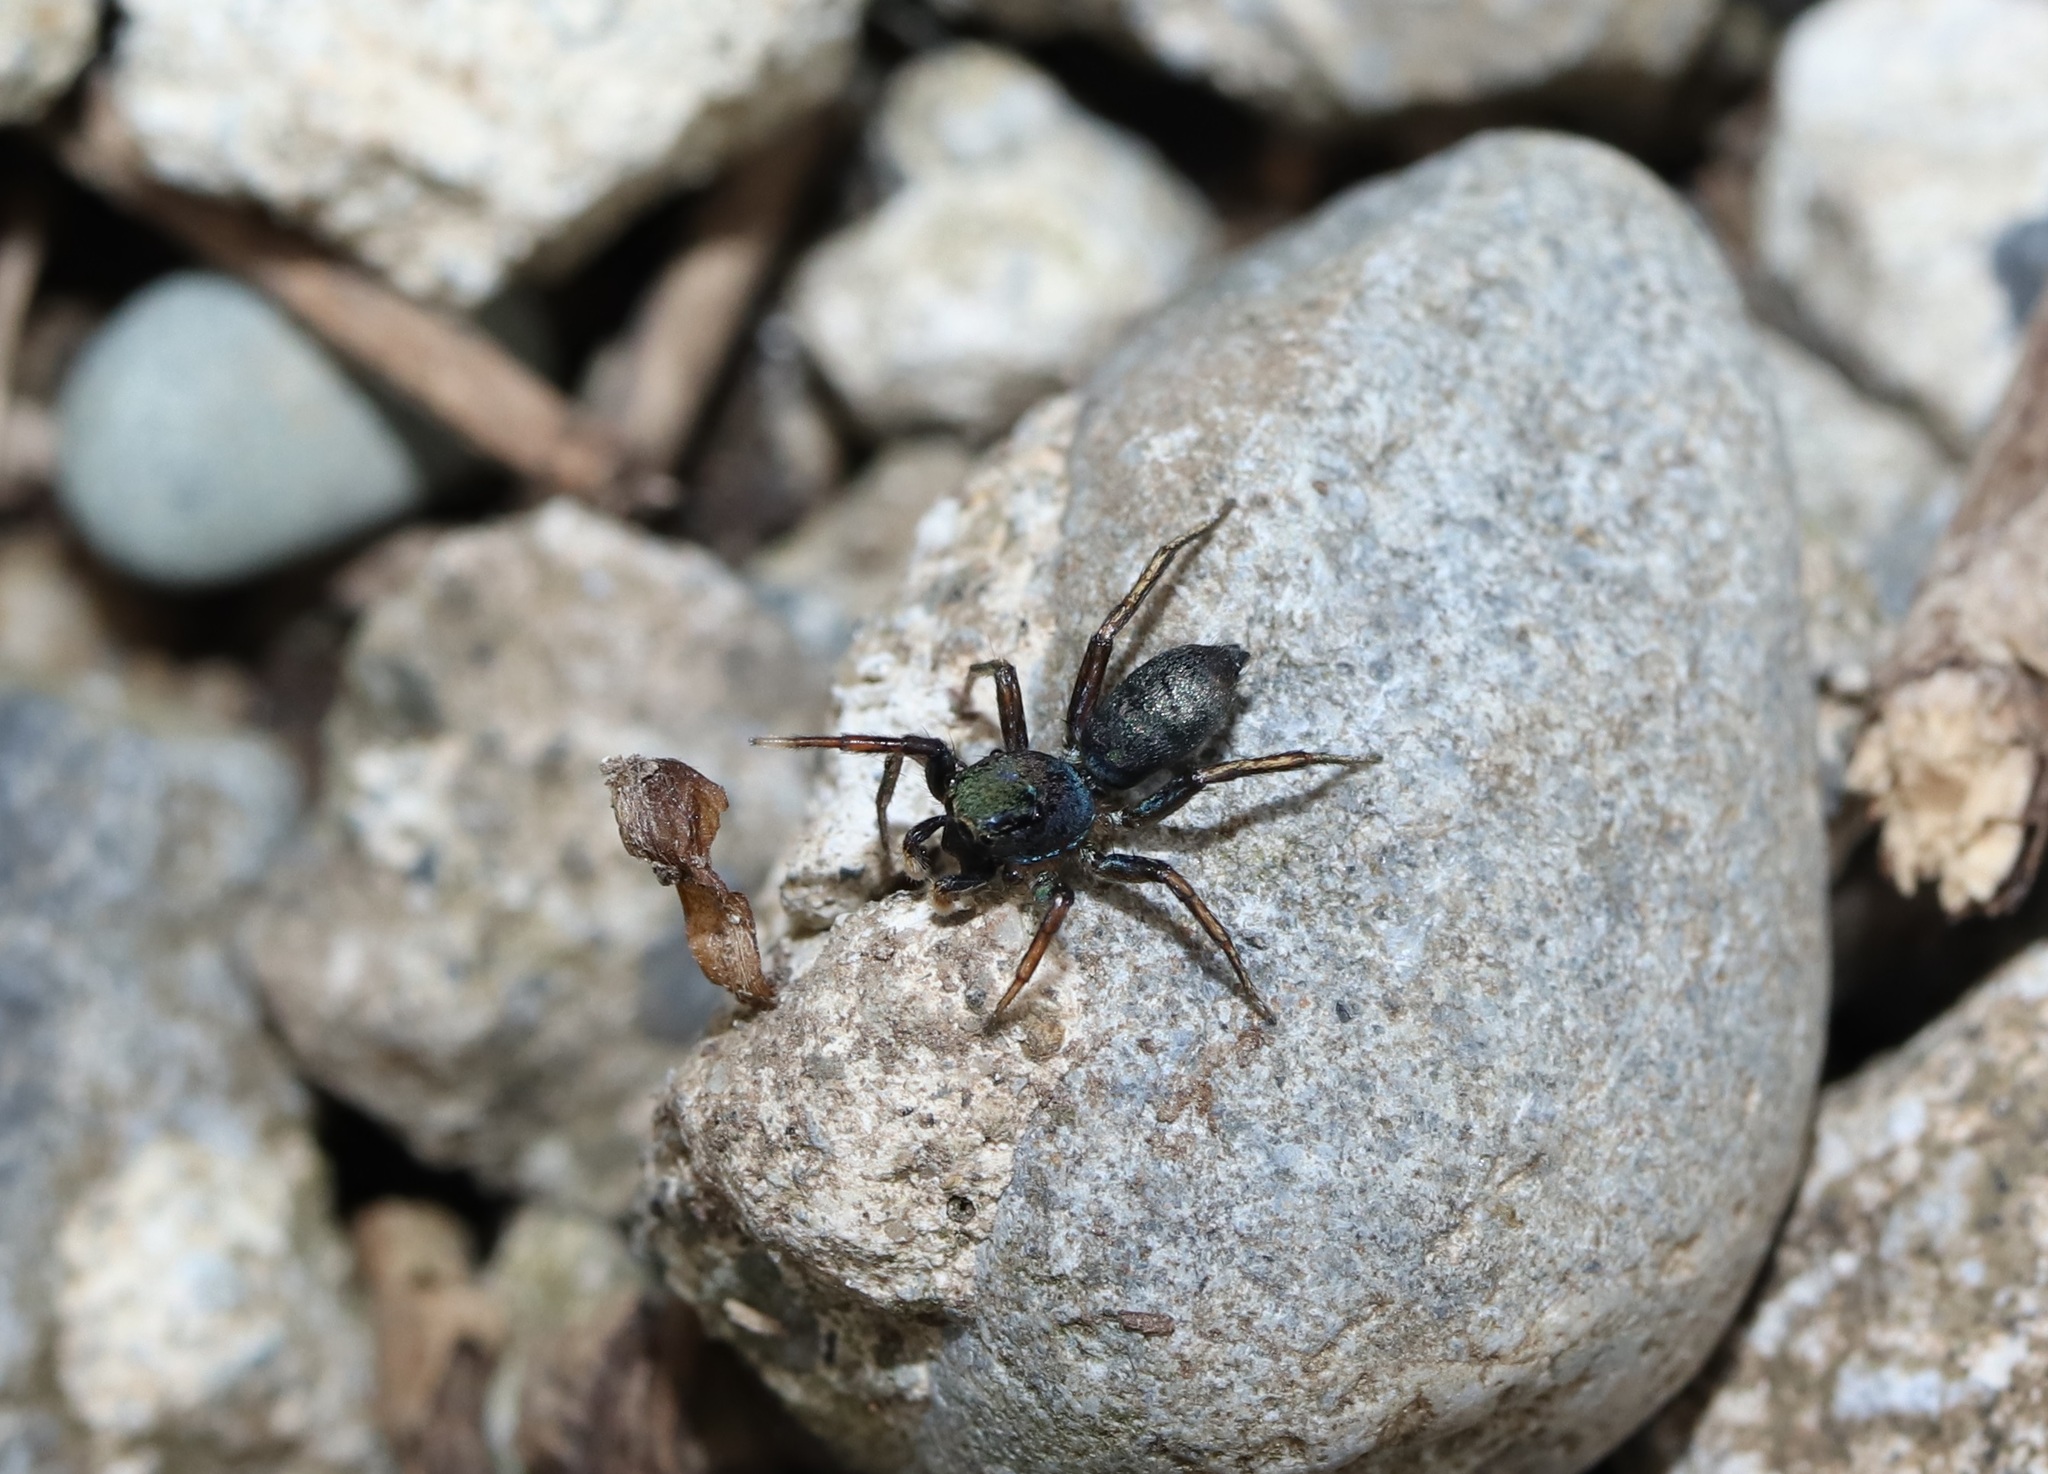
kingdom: Animalia
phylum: Arthropoda
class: Arachnida
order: Araneae
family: Salticidae
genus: Siler
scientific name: Siler cupreus
